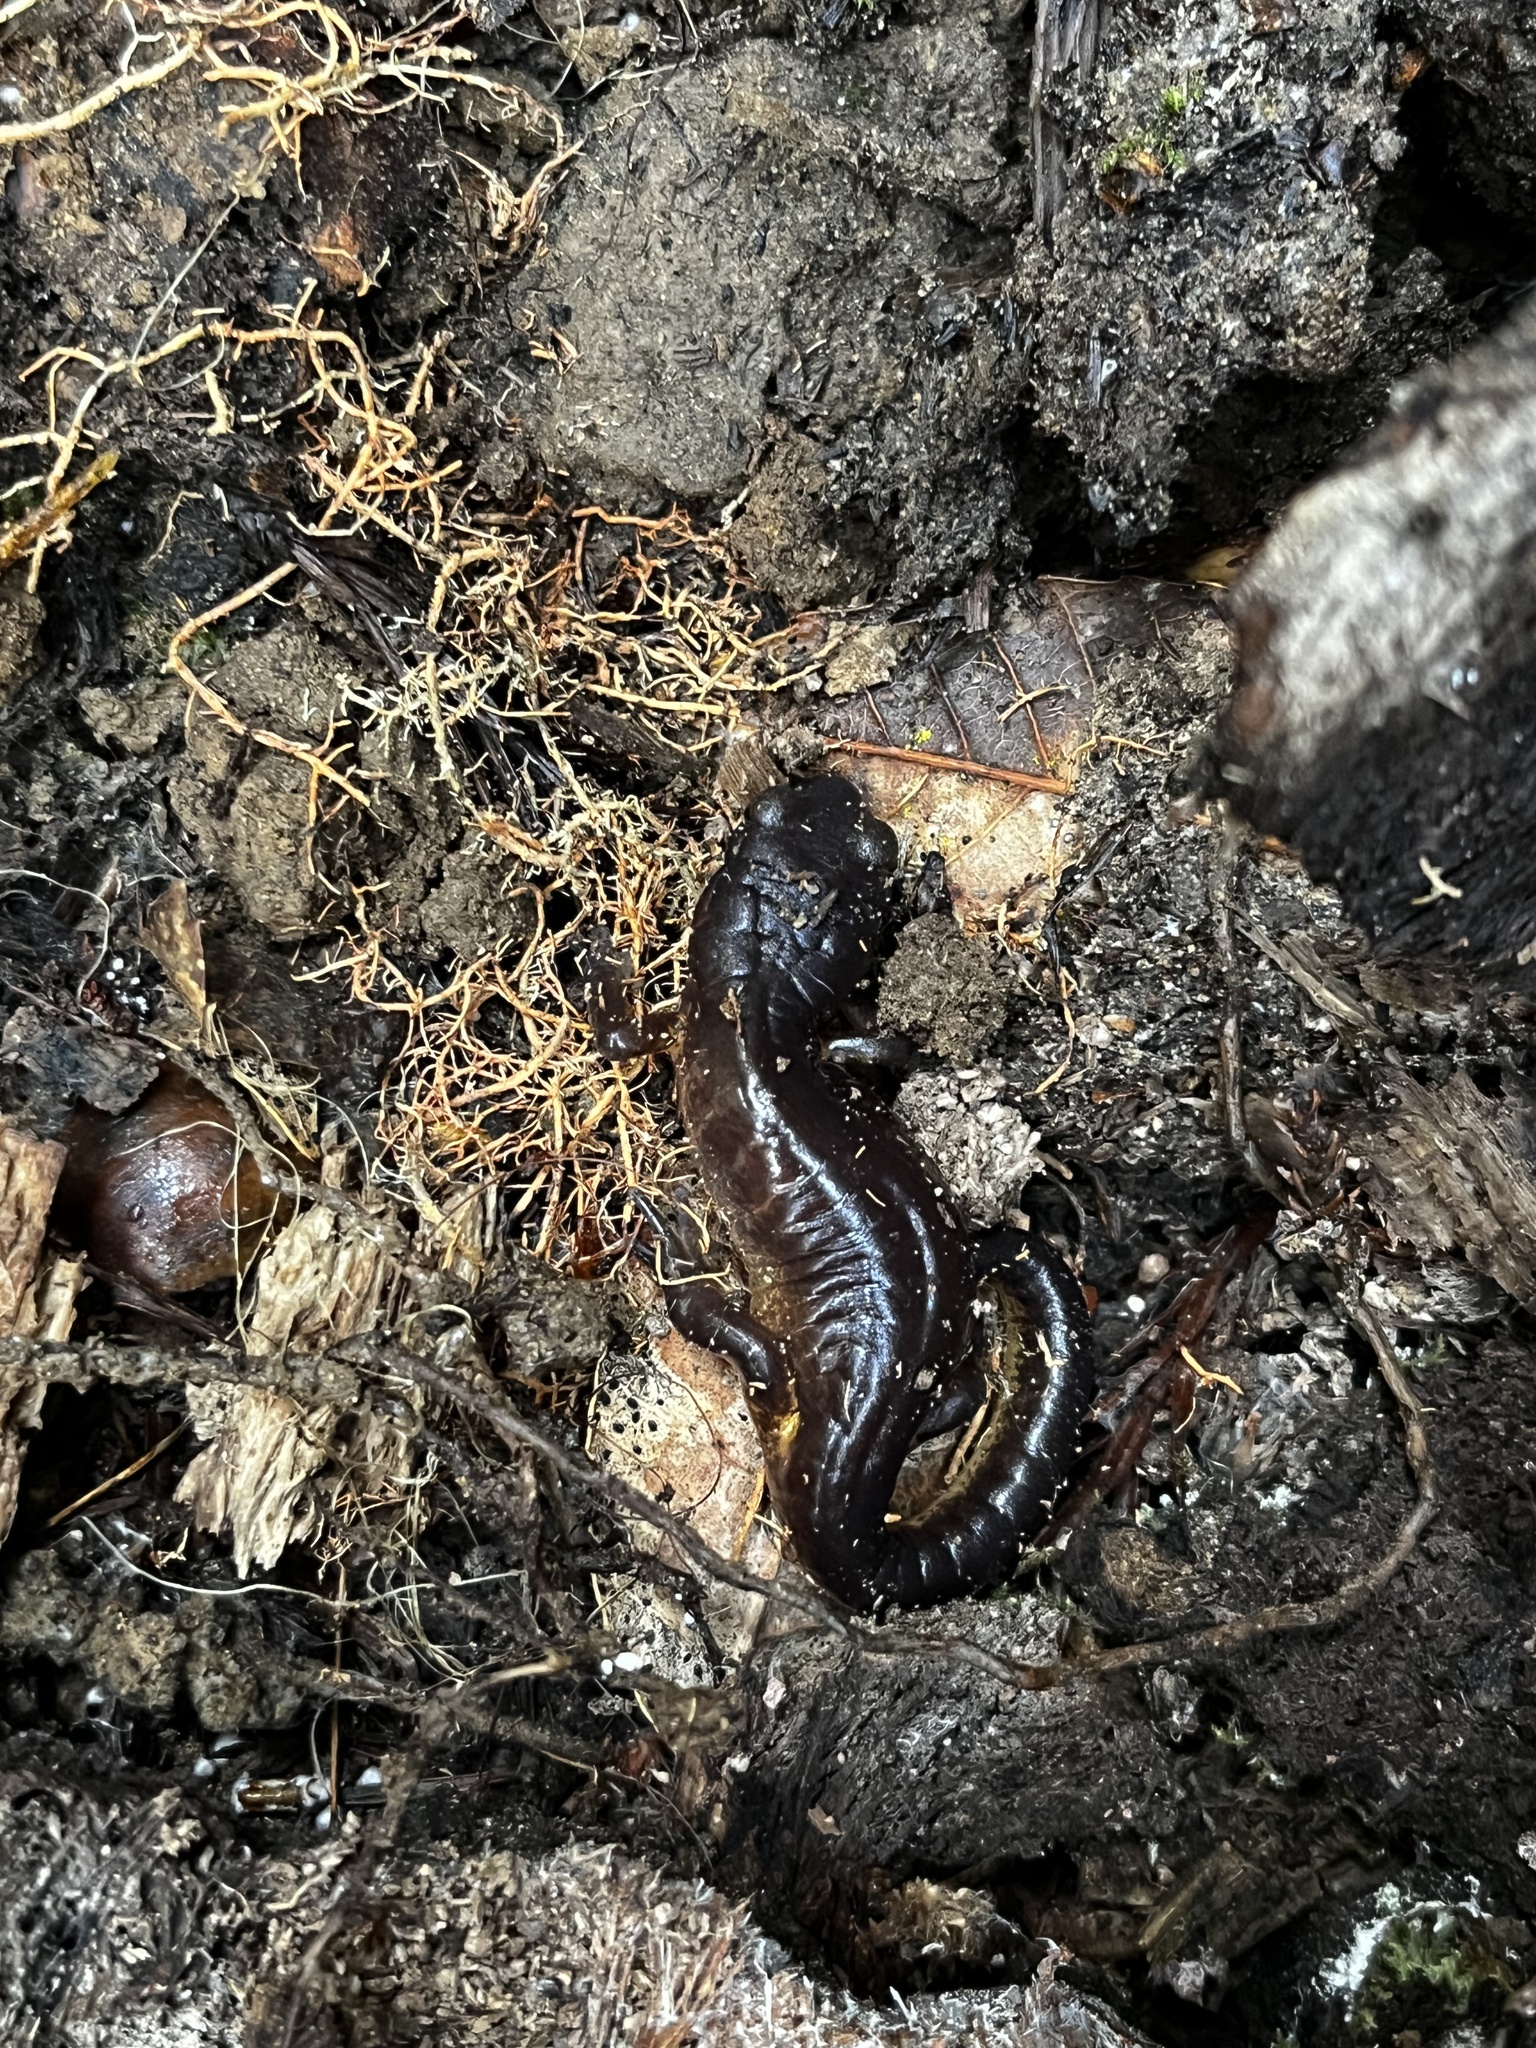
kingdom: Animalia
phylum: Chordata
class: Amphibia
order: Caudata
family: Plethodontidae
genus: Ensatina
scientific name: Ensatina eschscholtzii
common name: Ensatina
